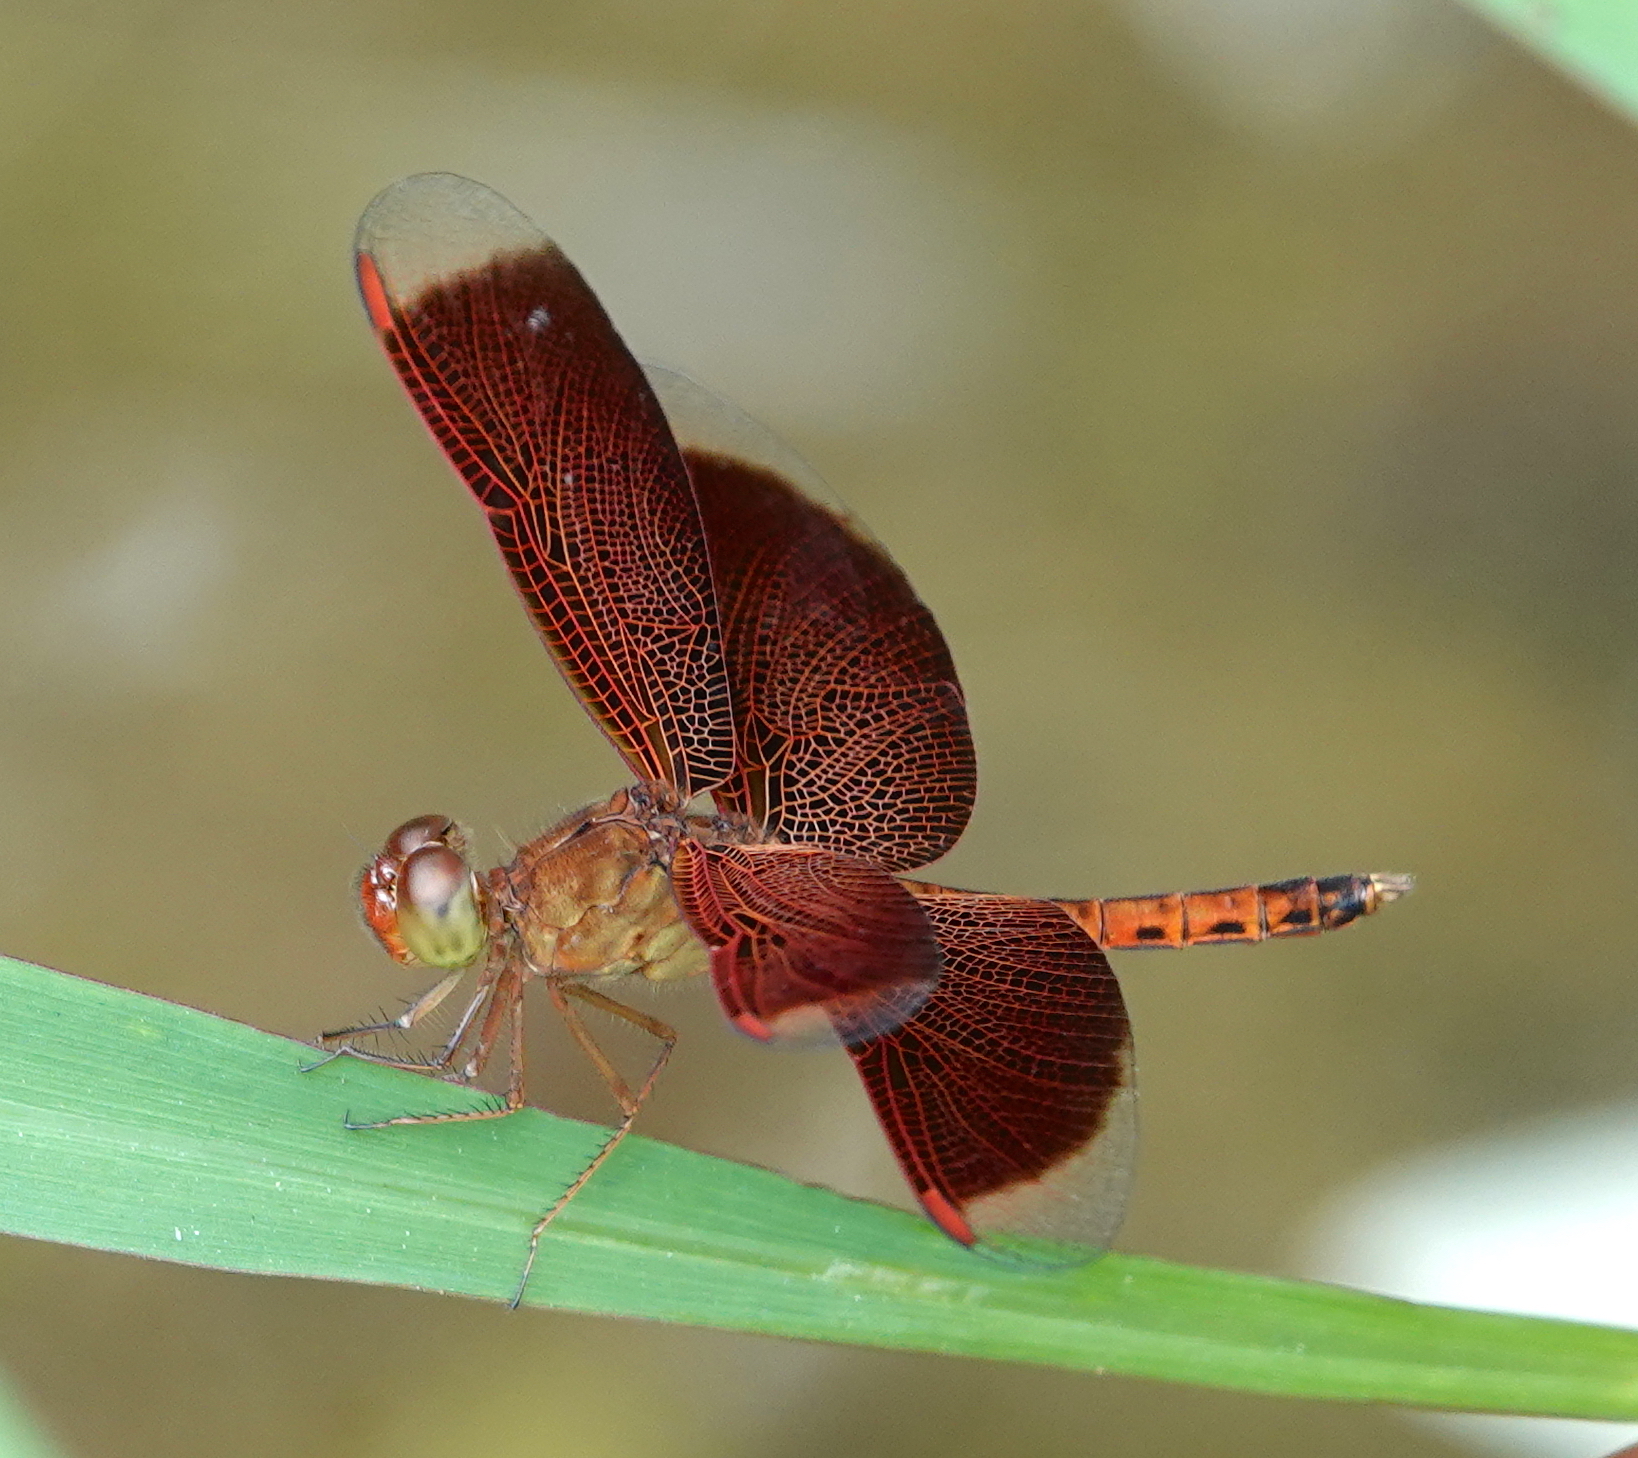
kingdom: Animalia
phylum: Arthropoda
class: Insecta
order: Odonata
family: Libellulidae
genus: Neurothemis
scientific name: Neurothemis fluctuans
